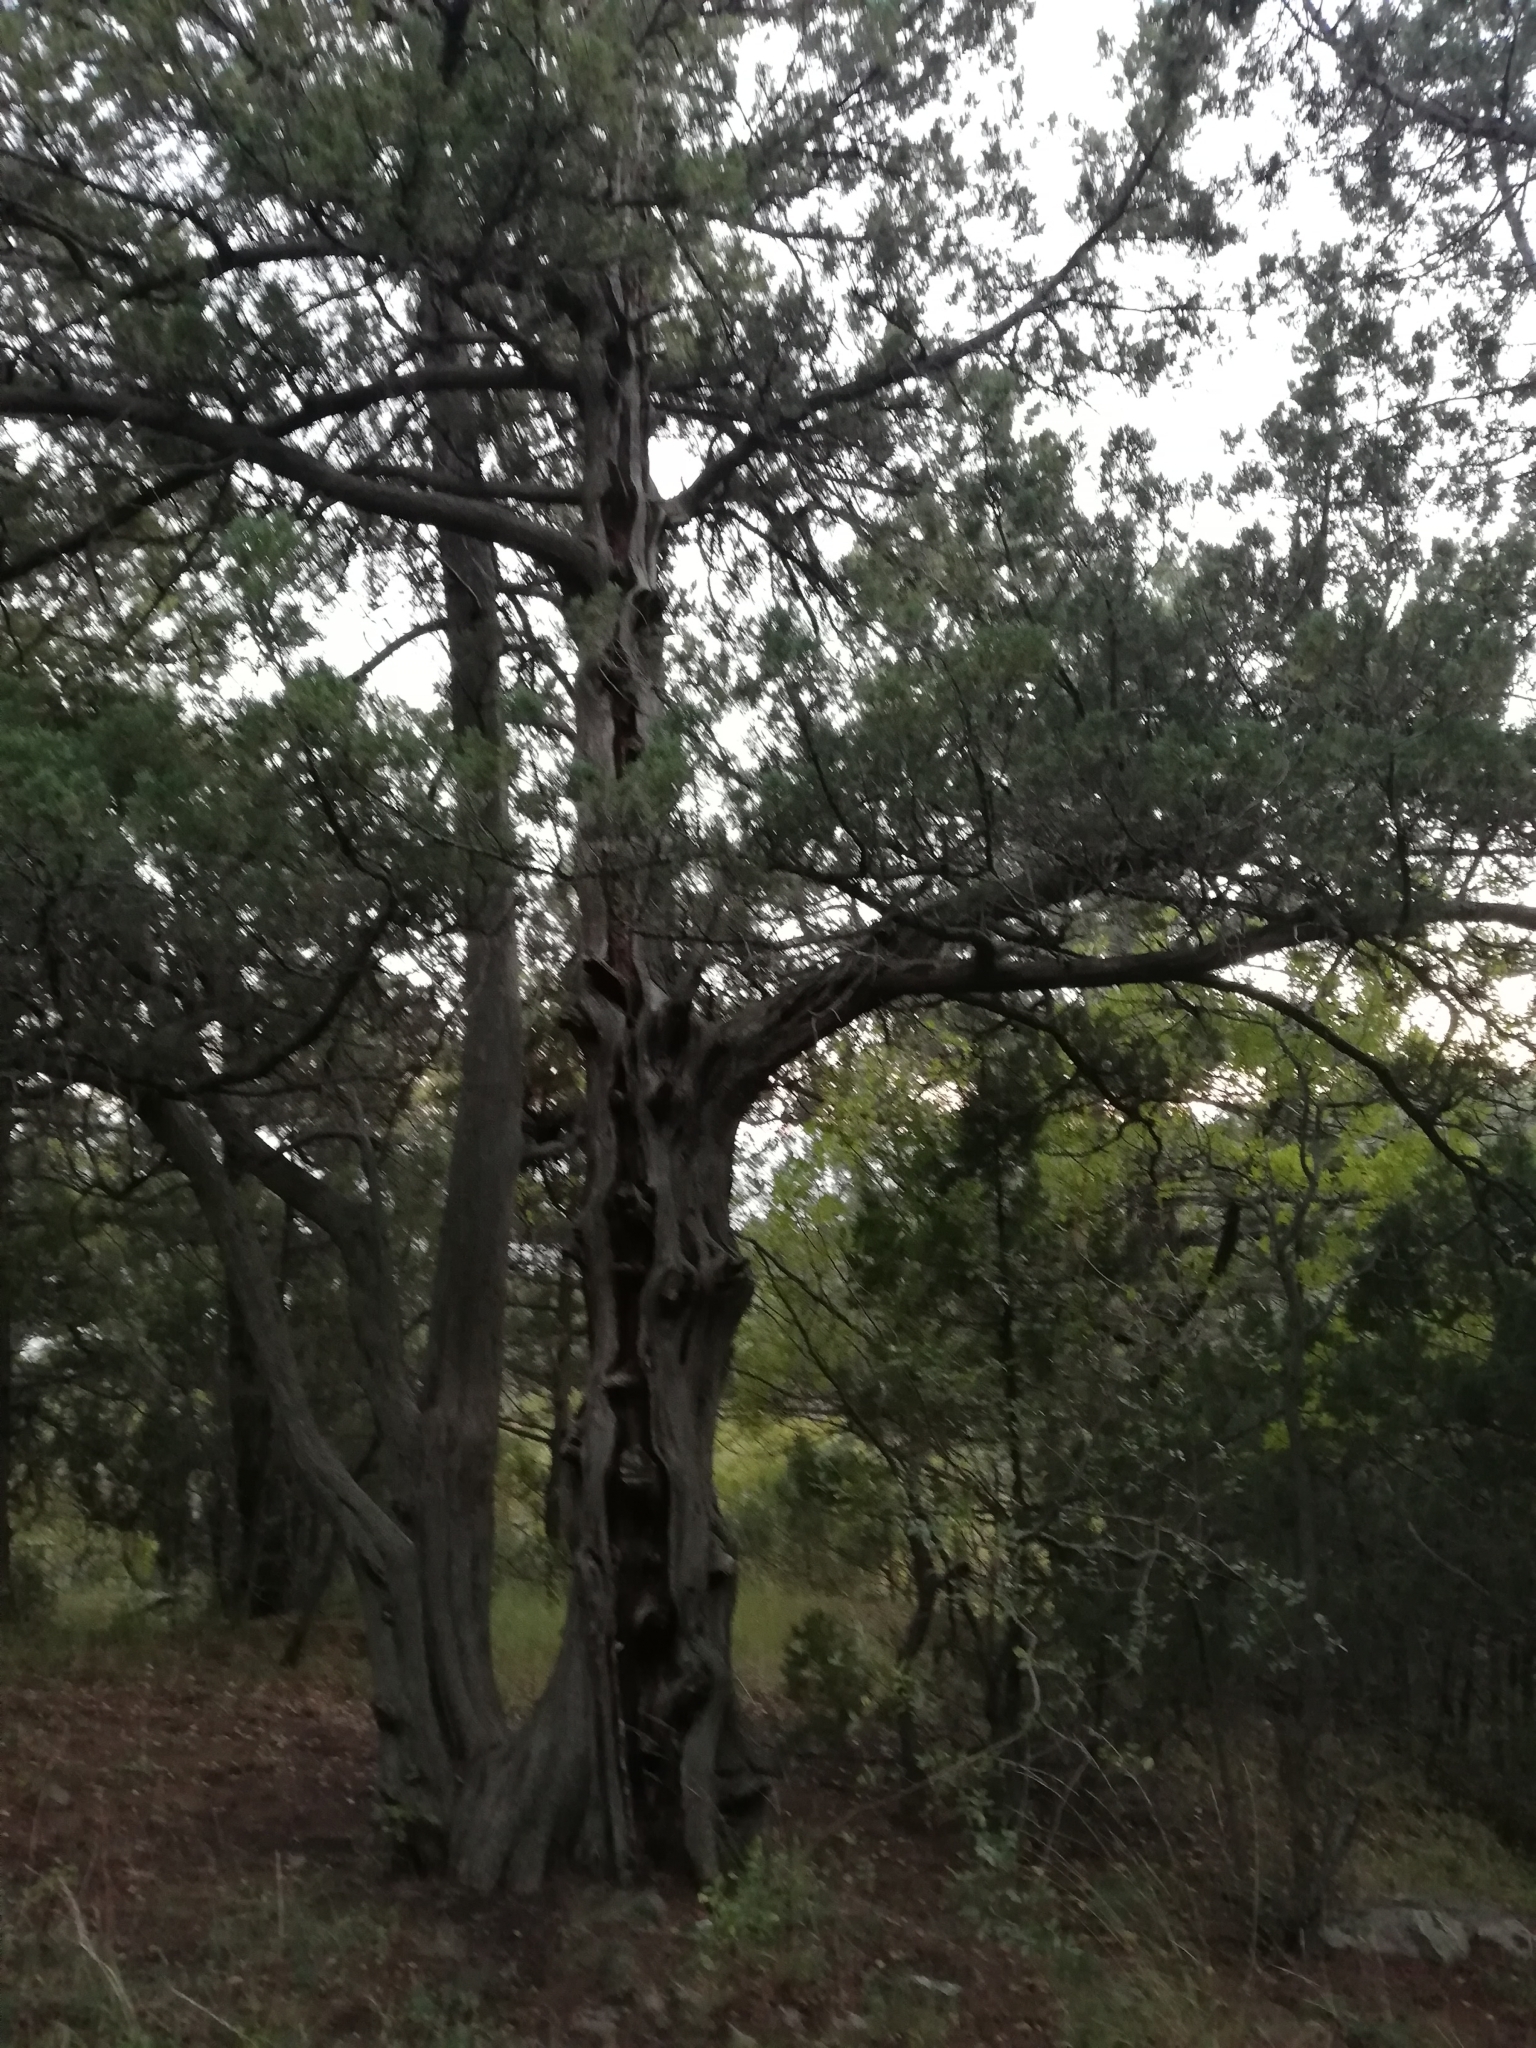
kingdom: Plantae
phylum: Tracheophyta
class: Pinopsida
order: Pinales
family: Cupressaceae
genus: Juniperus
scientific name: Juniperus excelsa
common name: Crimean juniper
